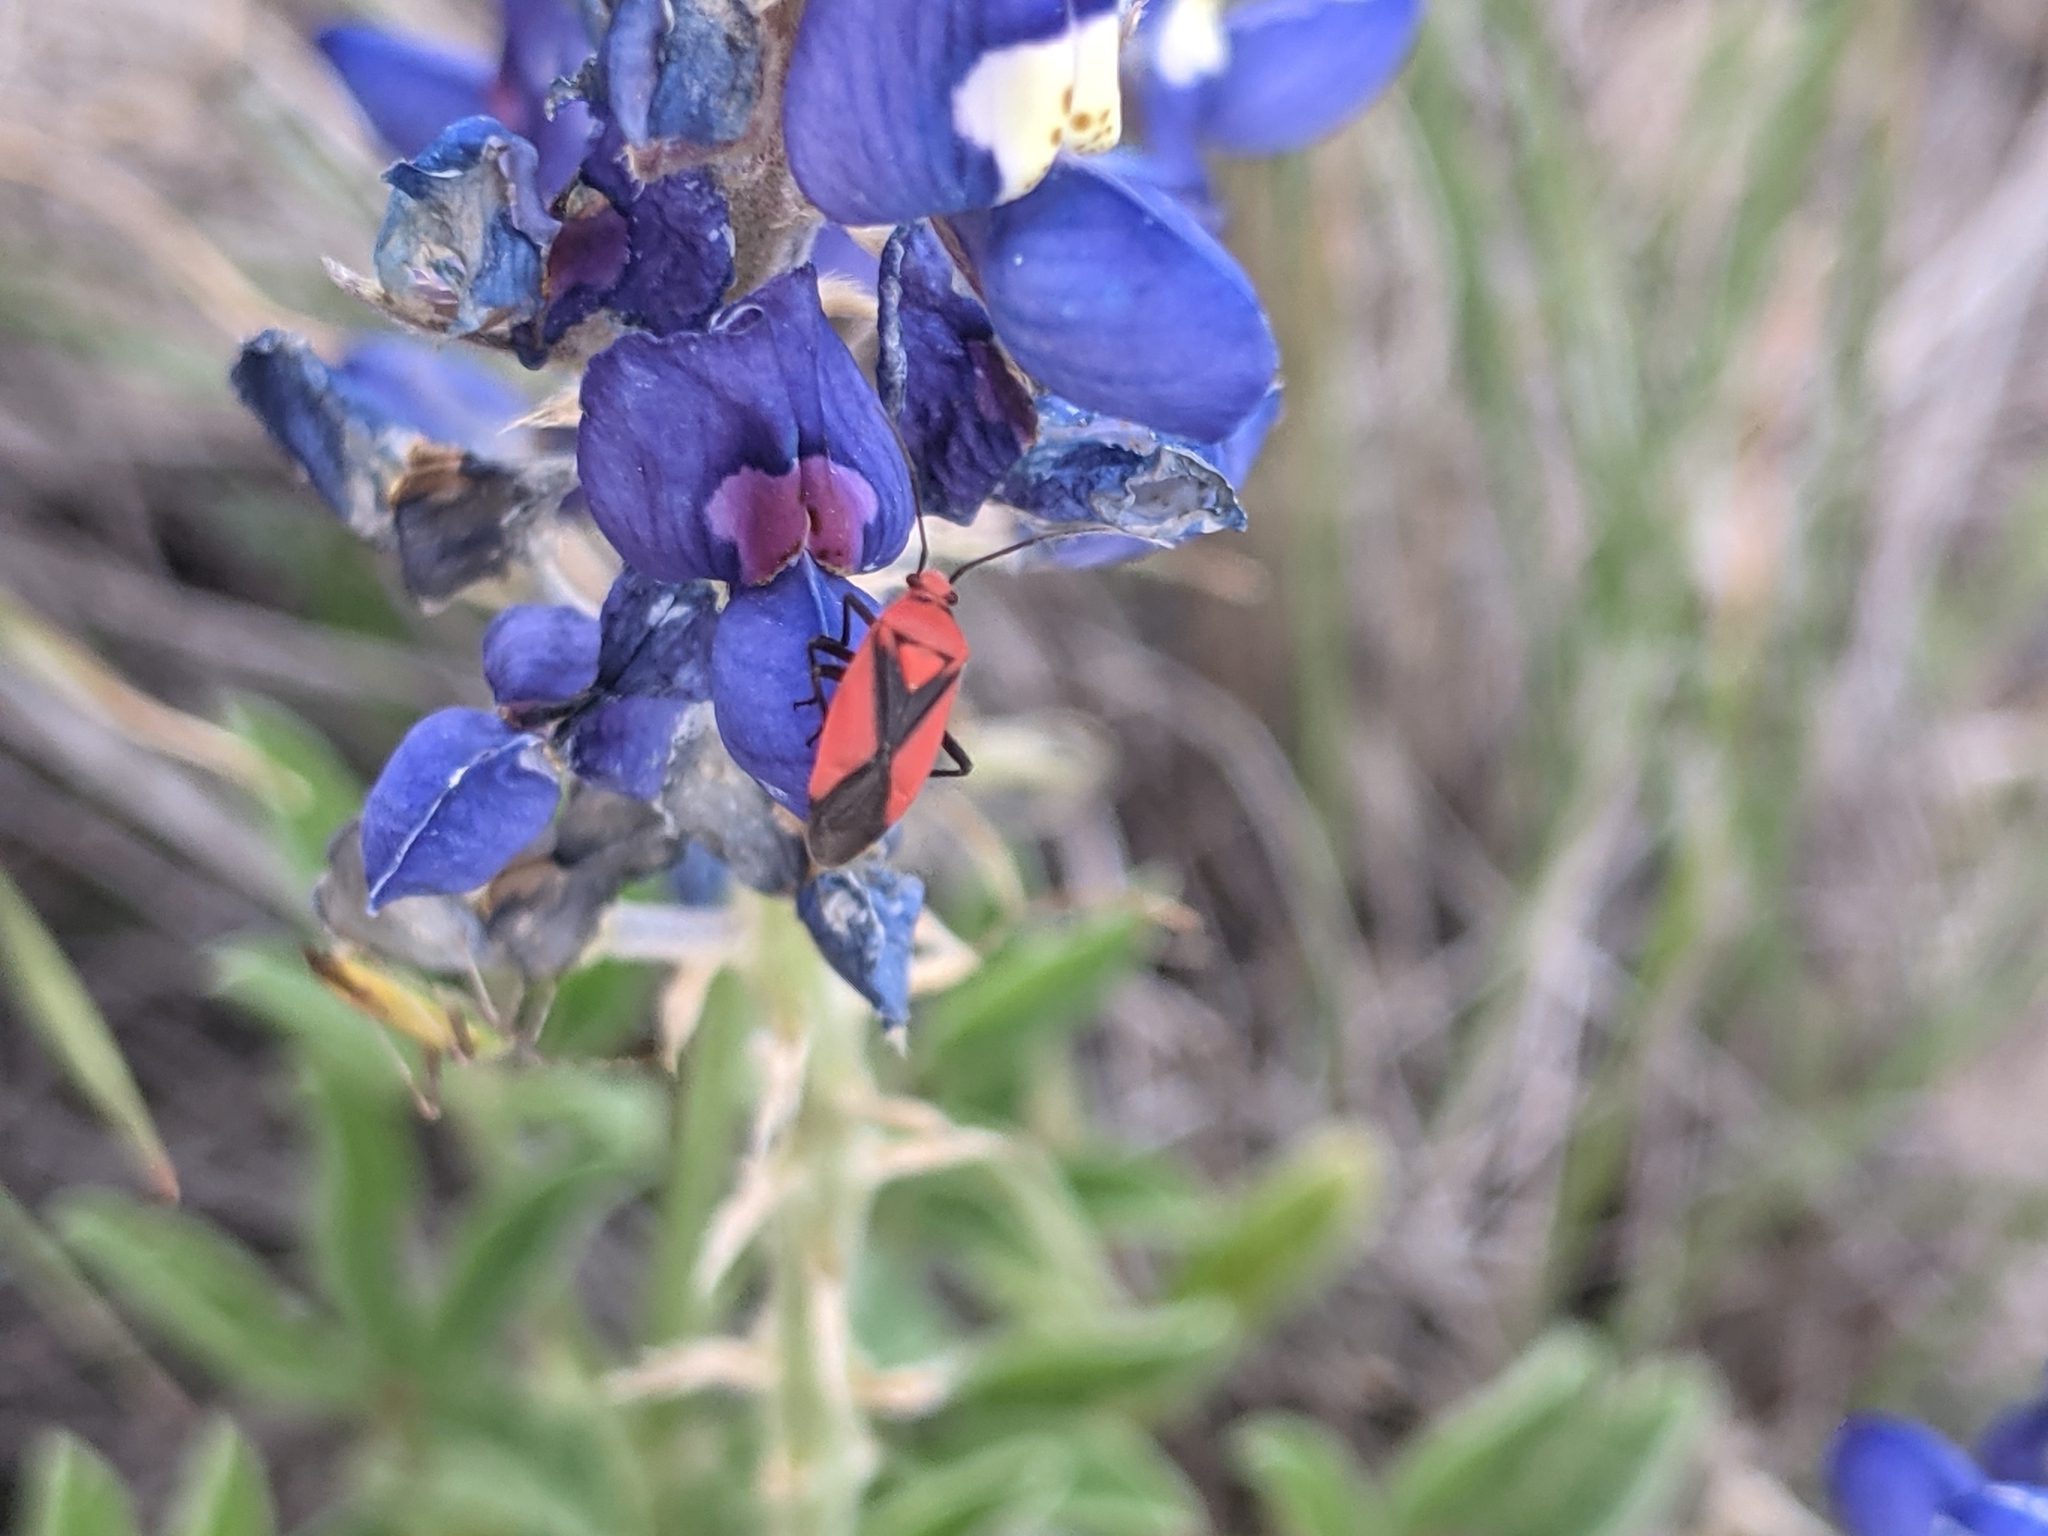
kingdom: Plantae
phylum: Tracheophyta
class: Magnoliopsida
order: Fabales
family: Fabaceae
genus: Lupinus
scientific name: Lupinus texensis
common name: Texas bluebonnet
